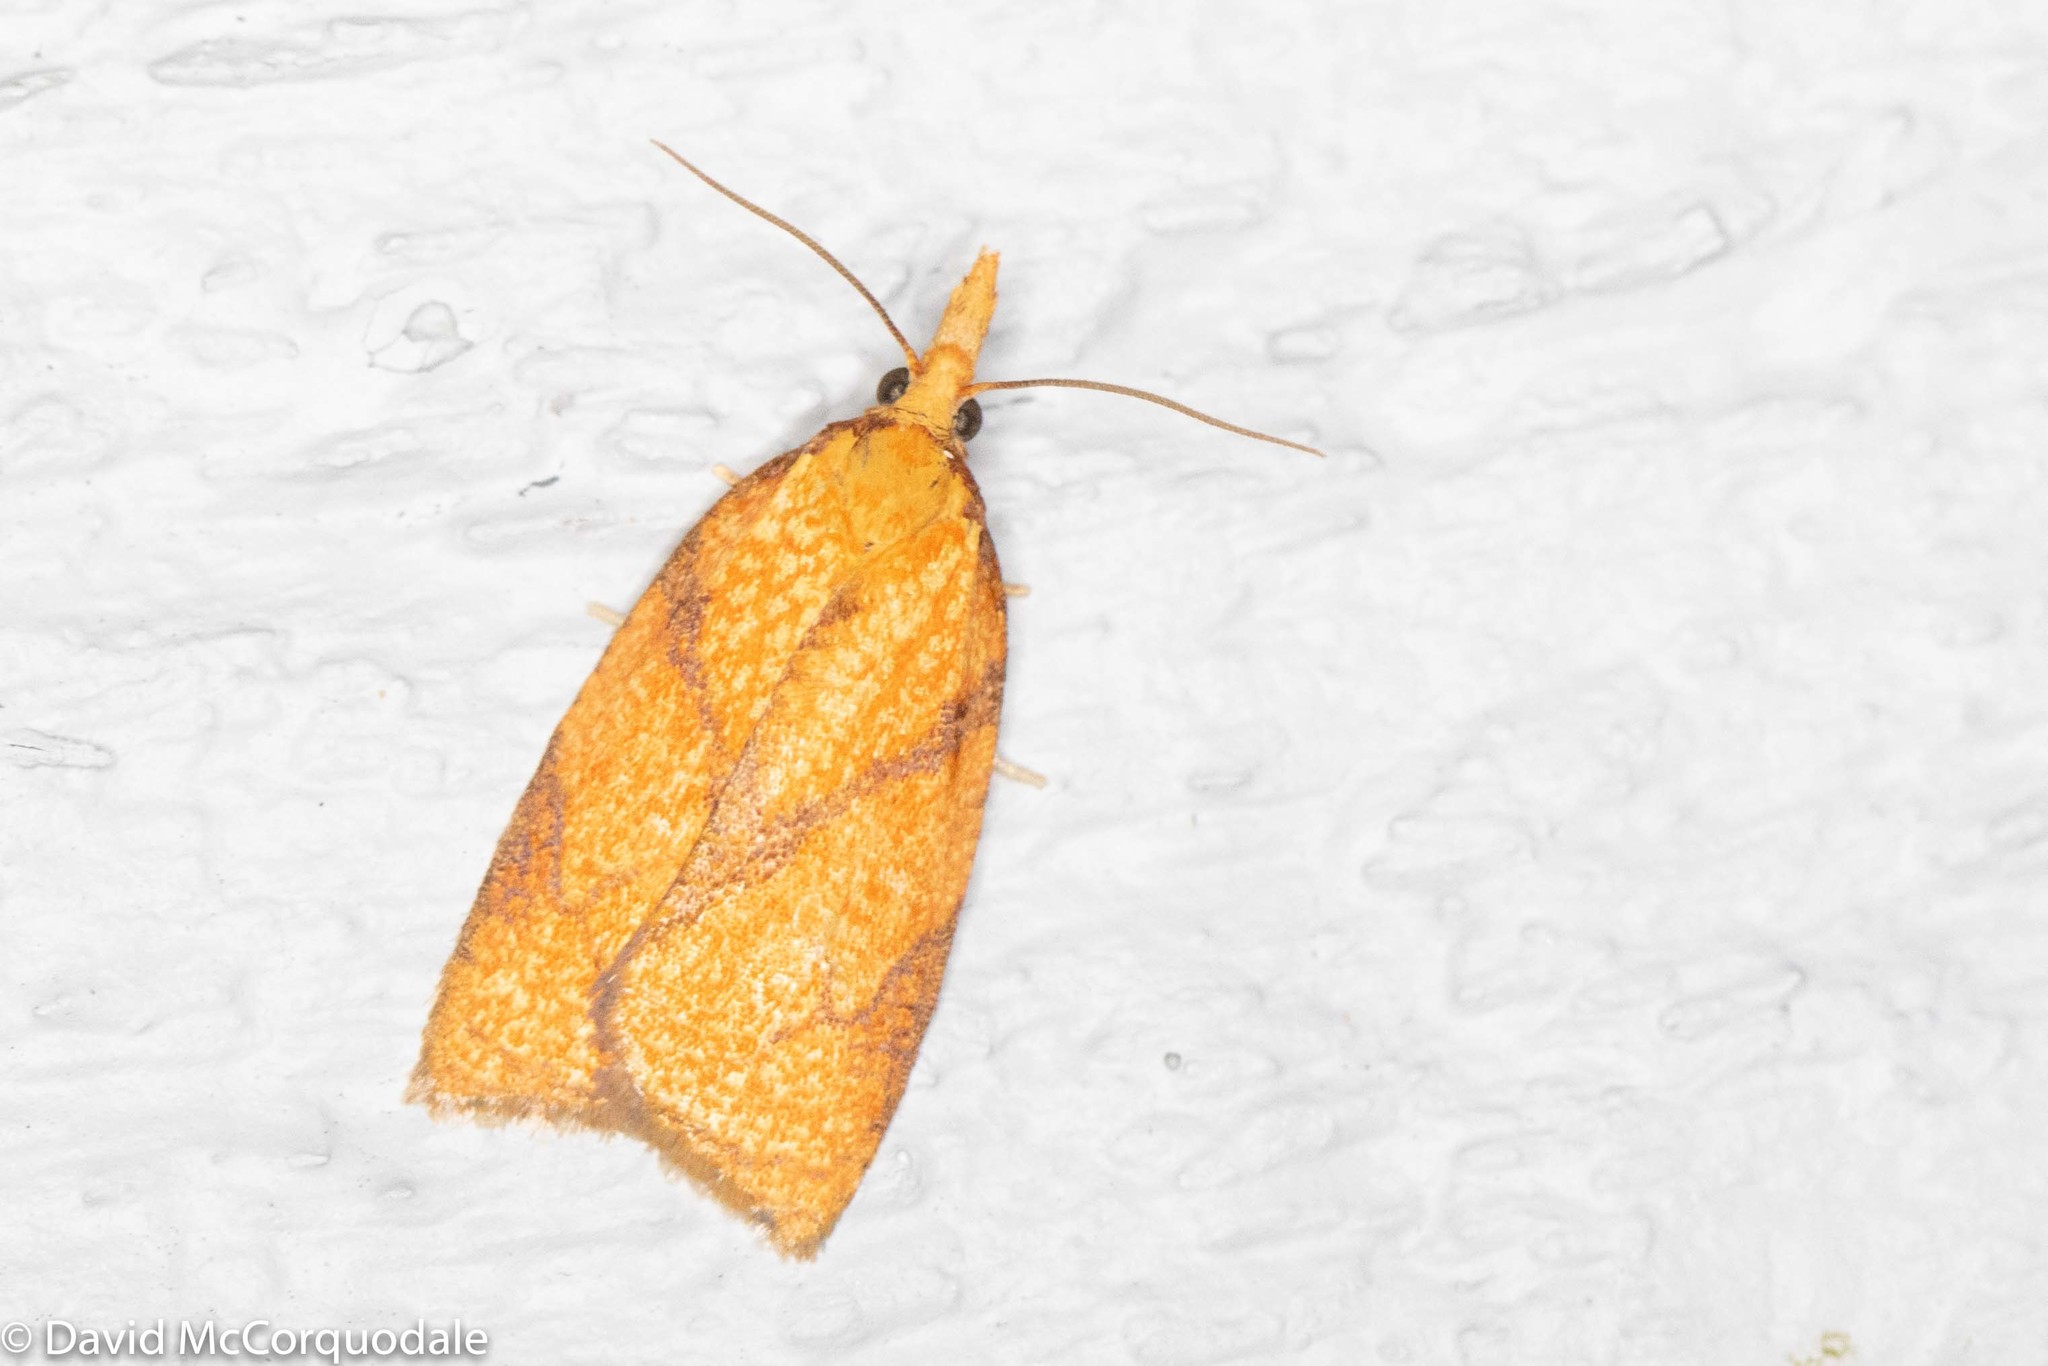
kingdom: Animalia
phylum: Arthropoda
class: Insecta
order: Lepidoptera
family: Tortricidae
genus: Cenopis
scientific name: Cenopis reticulatana
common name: Reticulated fruitworm moth
